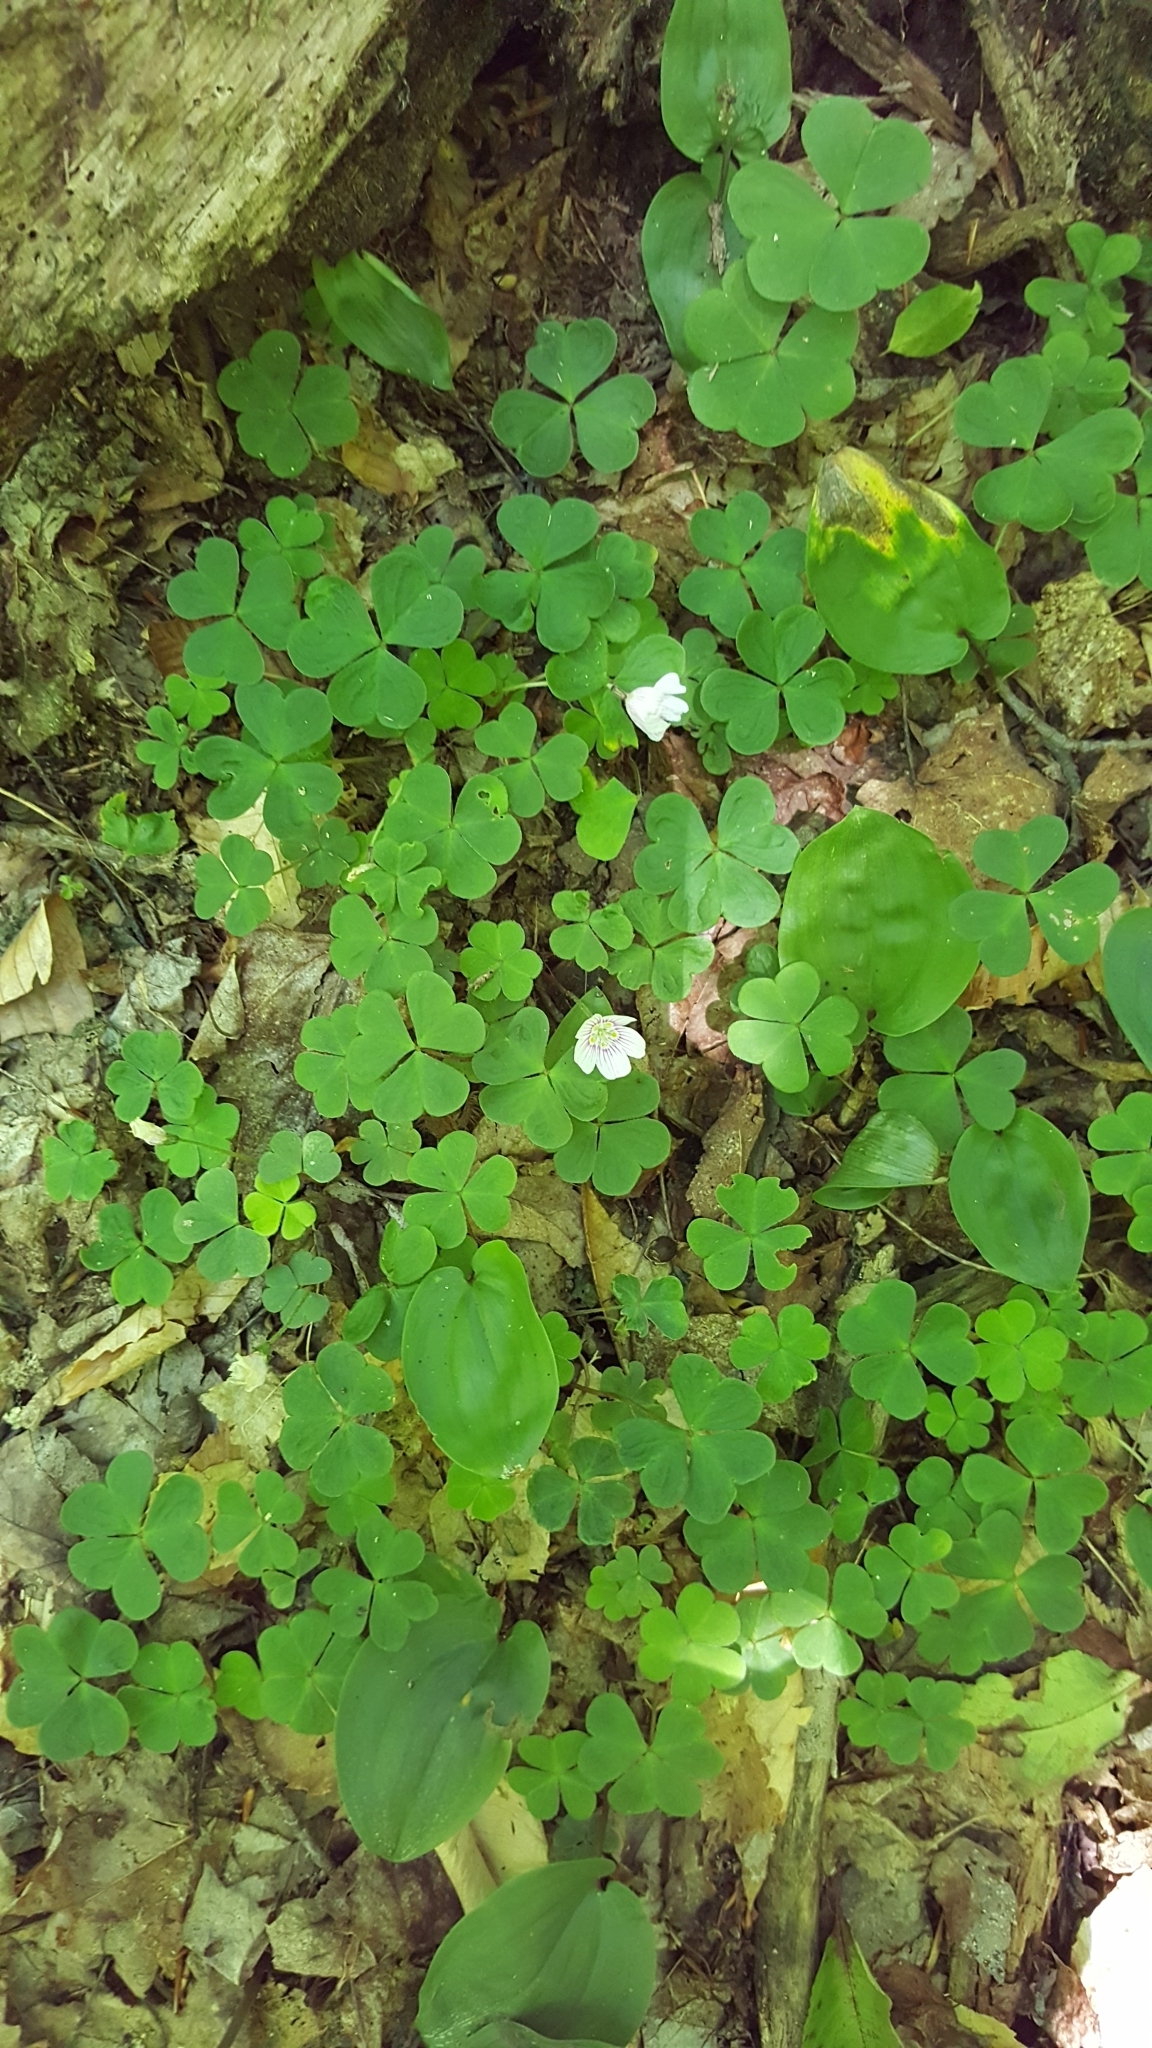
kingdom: Plantae
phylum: Tracheophyta
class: Magnoliopsida
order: Oxalidales
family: Oxalidaceae
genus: Oxalis
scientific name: Oxalis montana
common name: American wood-sorrel
